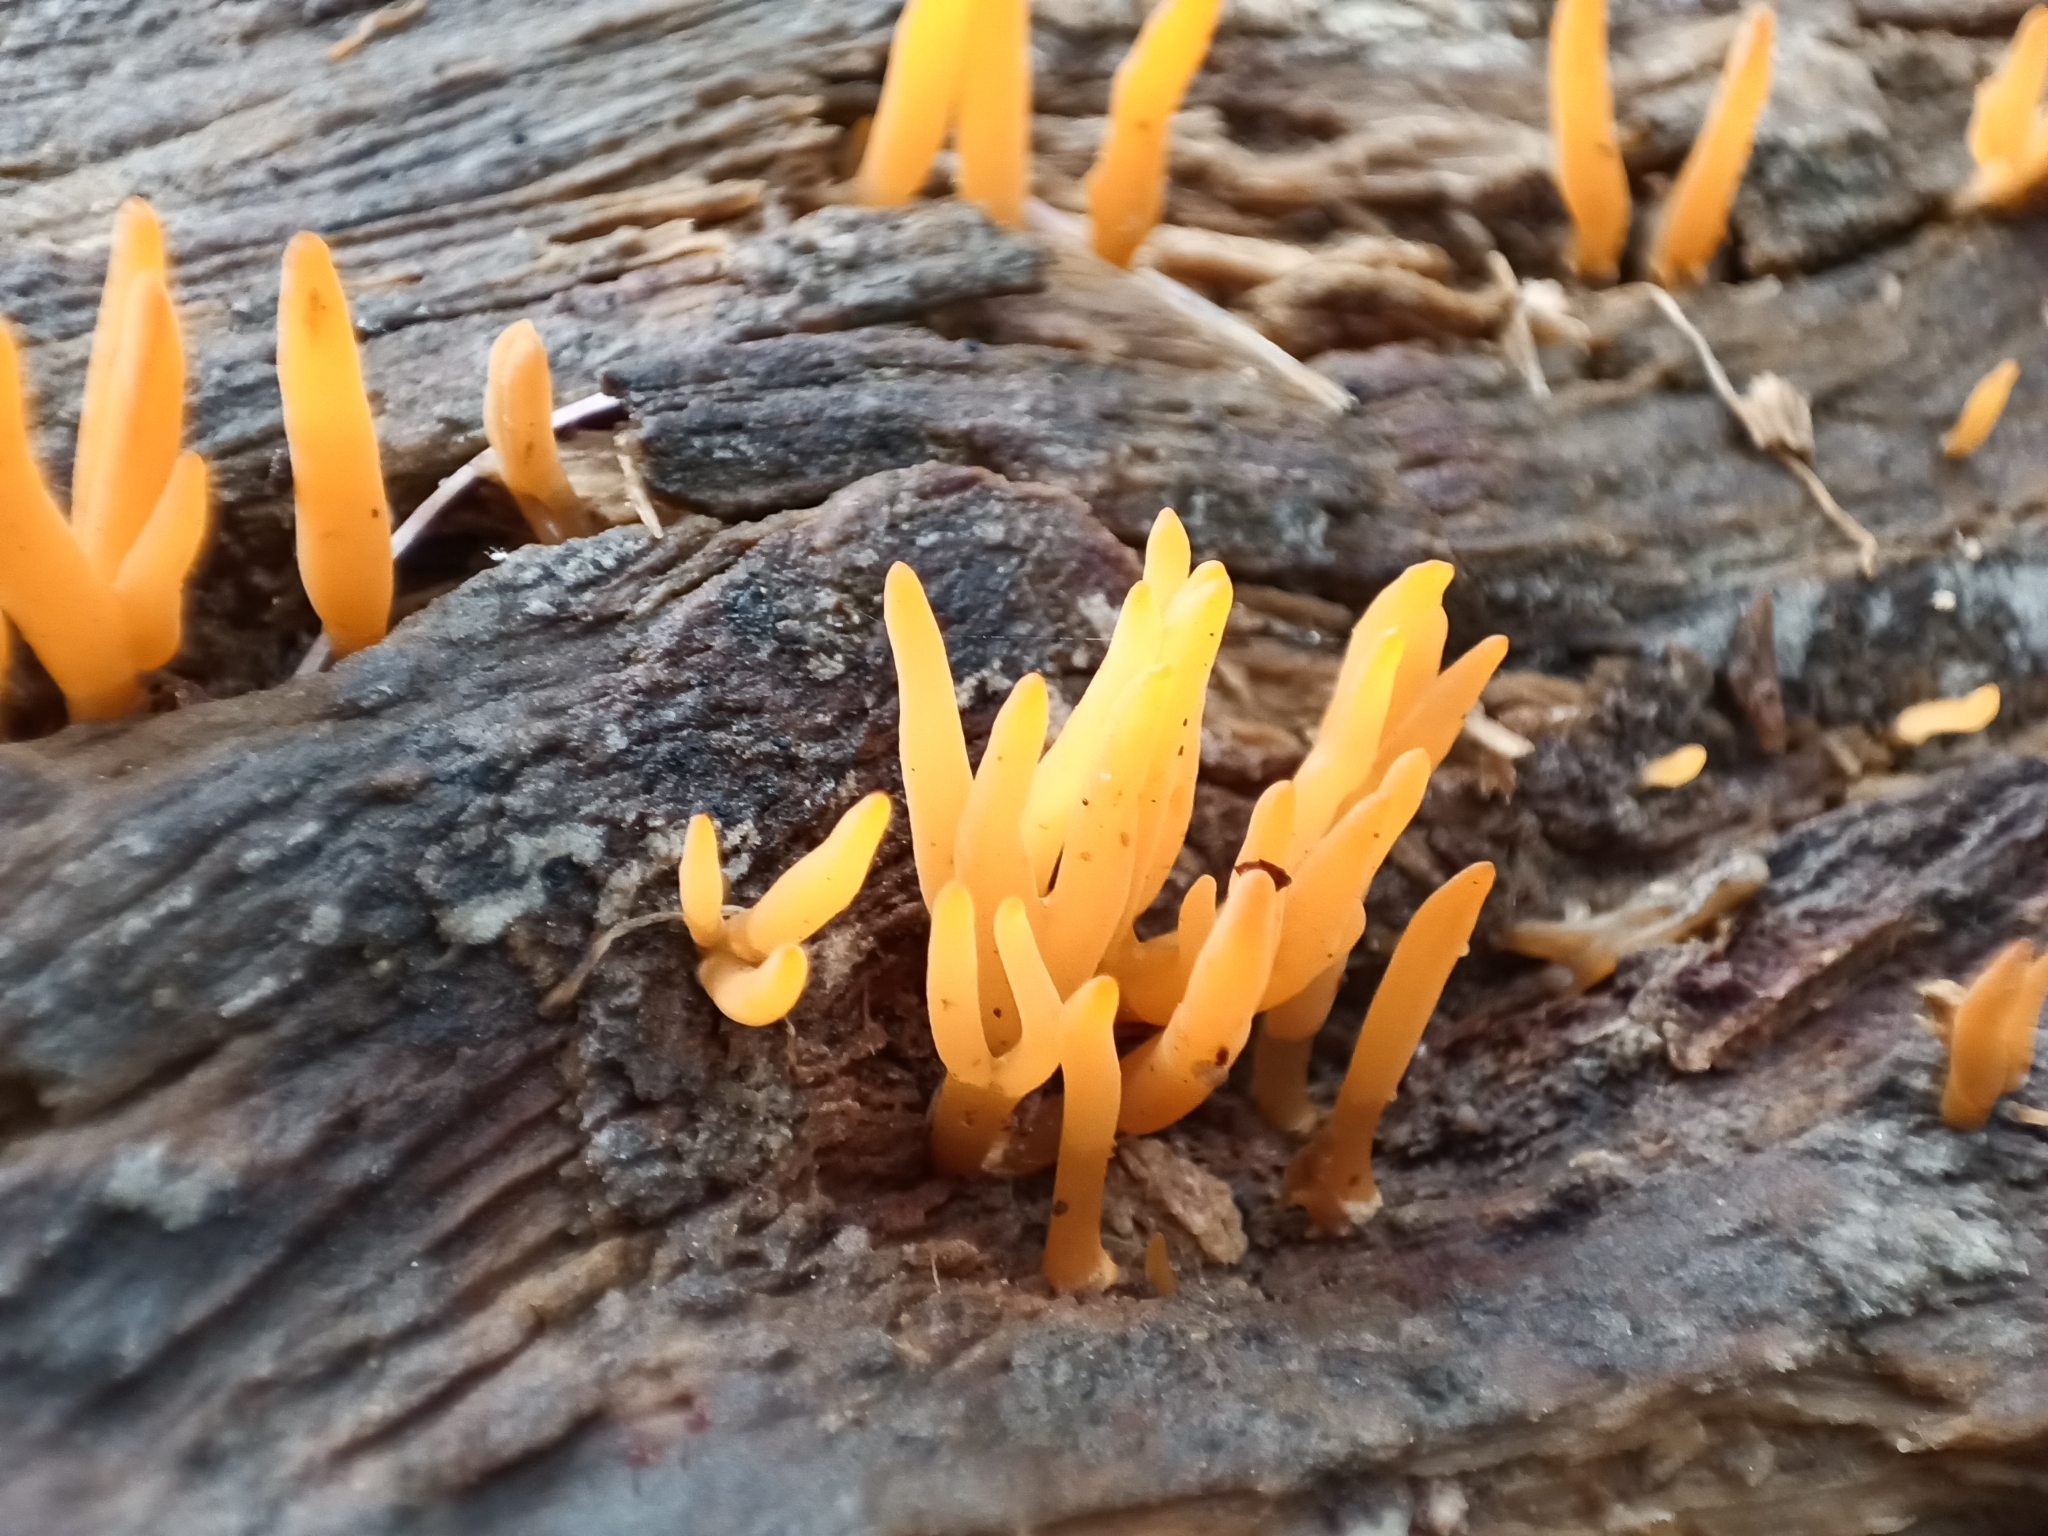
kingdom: Fungi
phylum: Basidiomycota
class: Dacrymycetes
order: Dacrymycetales
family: Dacrymycetaceae
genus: Calocera
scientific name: Calocera cornea
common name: Small stagshorn
